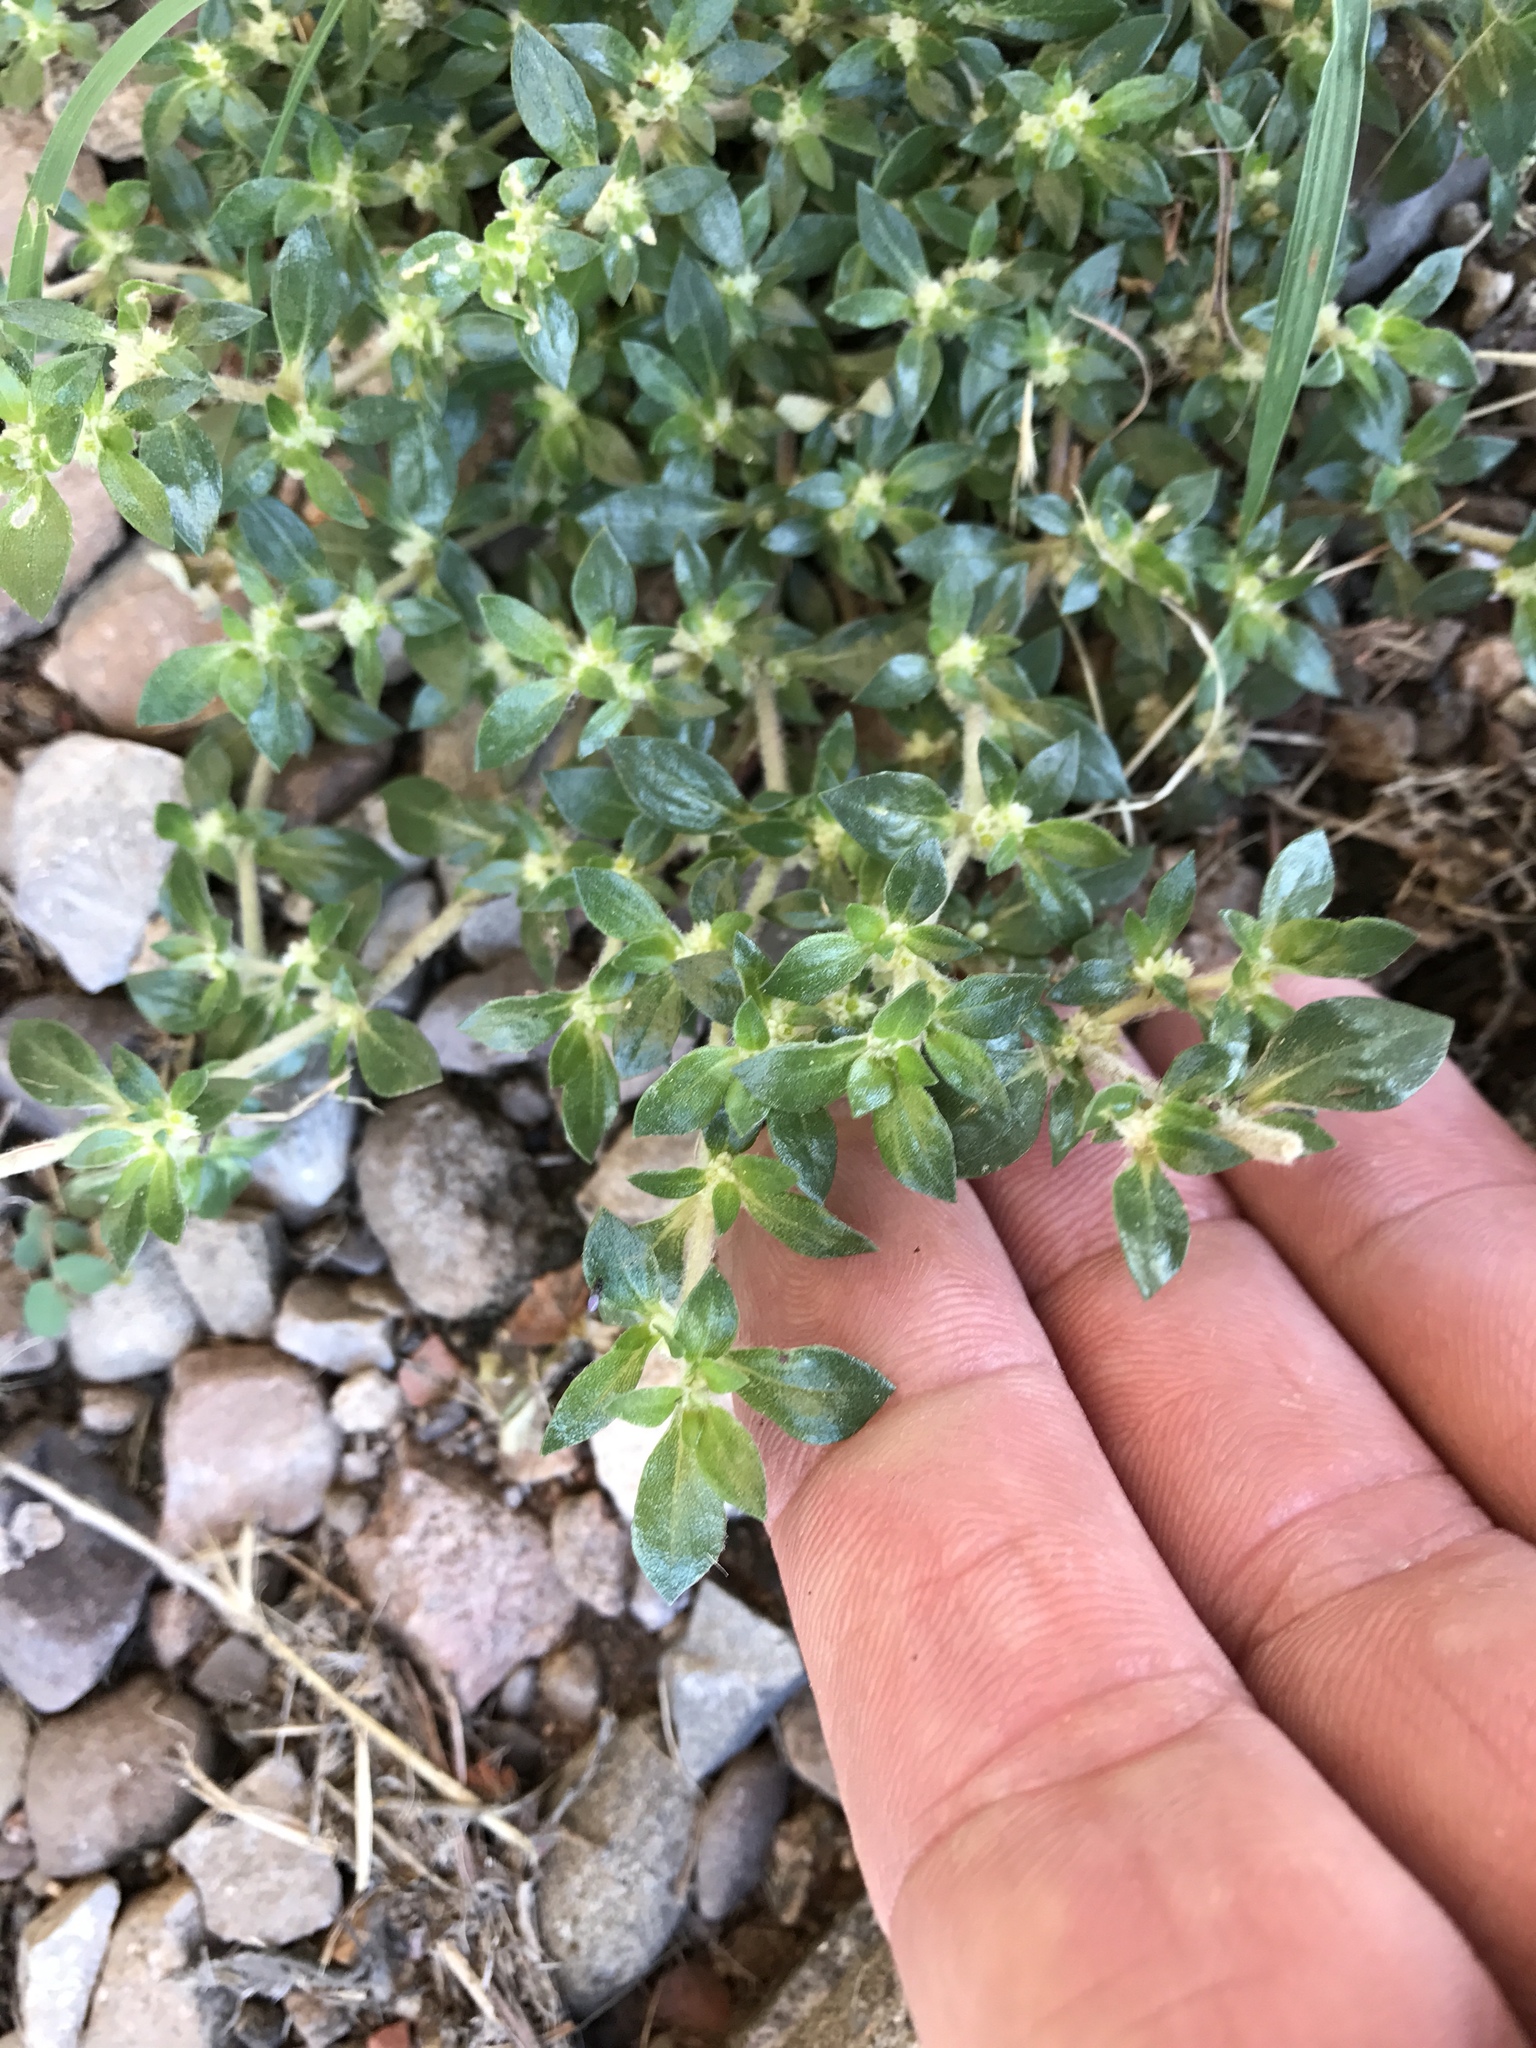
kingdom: Plantae
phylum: Tracheophyta
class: Magnoliopsida
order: Caryophyllales
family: Amaranthaceae
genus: Guilleminea
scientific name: Guilleminea densa
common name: Small matweed
